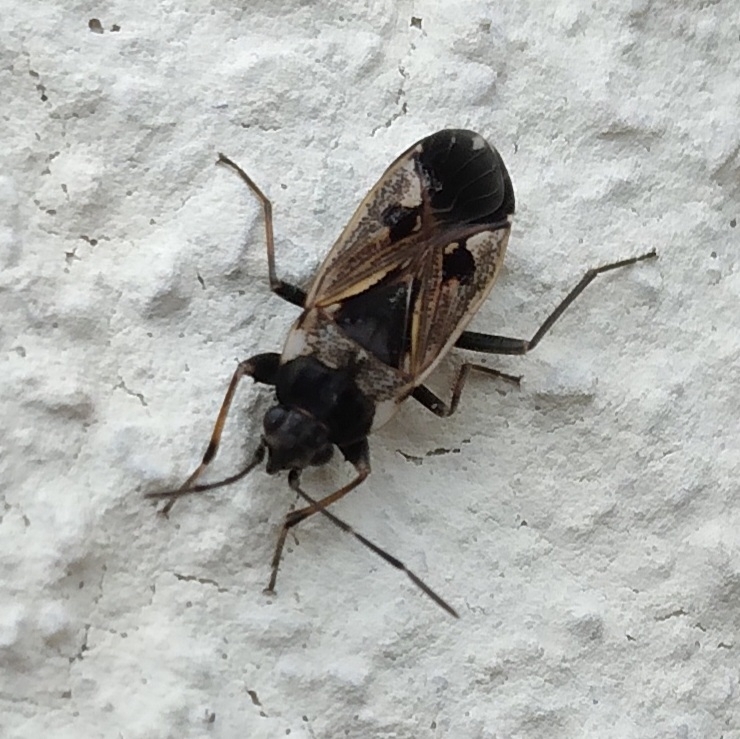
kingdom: Animalia
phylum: Arthropoda
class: Insecta
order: Hemiptera
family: Rhyparochromidae
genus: Rhyparochromus
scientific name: Rhyparochromus vulgaris
